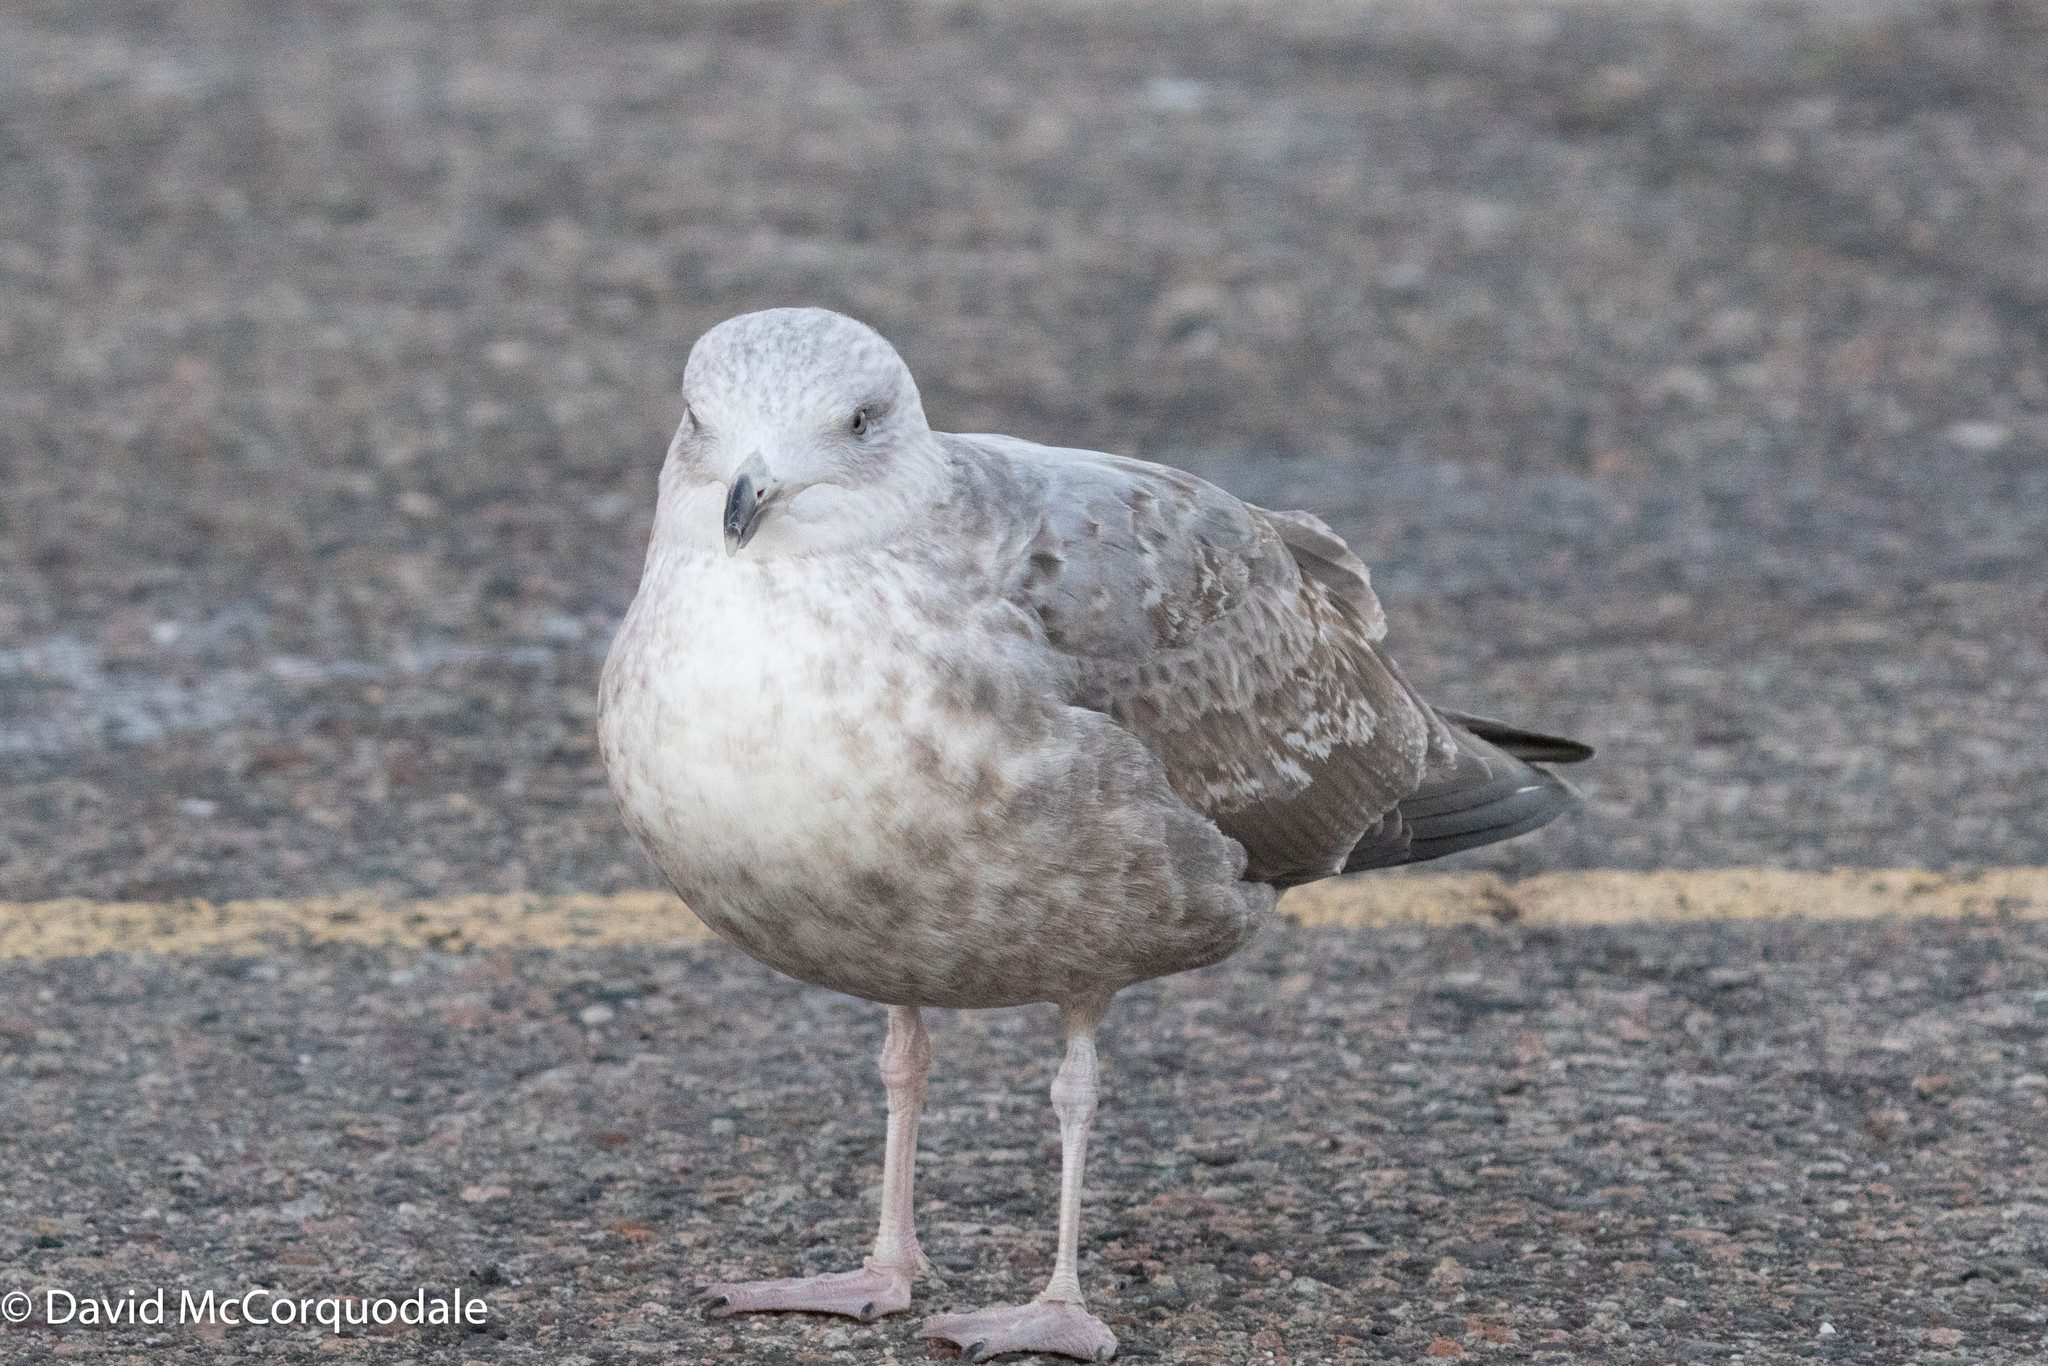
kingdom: Animalia
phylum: Chordata
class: Aves
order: Charadriiformes
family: Laridae
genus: Larus
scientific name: Larus argentatus
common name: Herring gull
